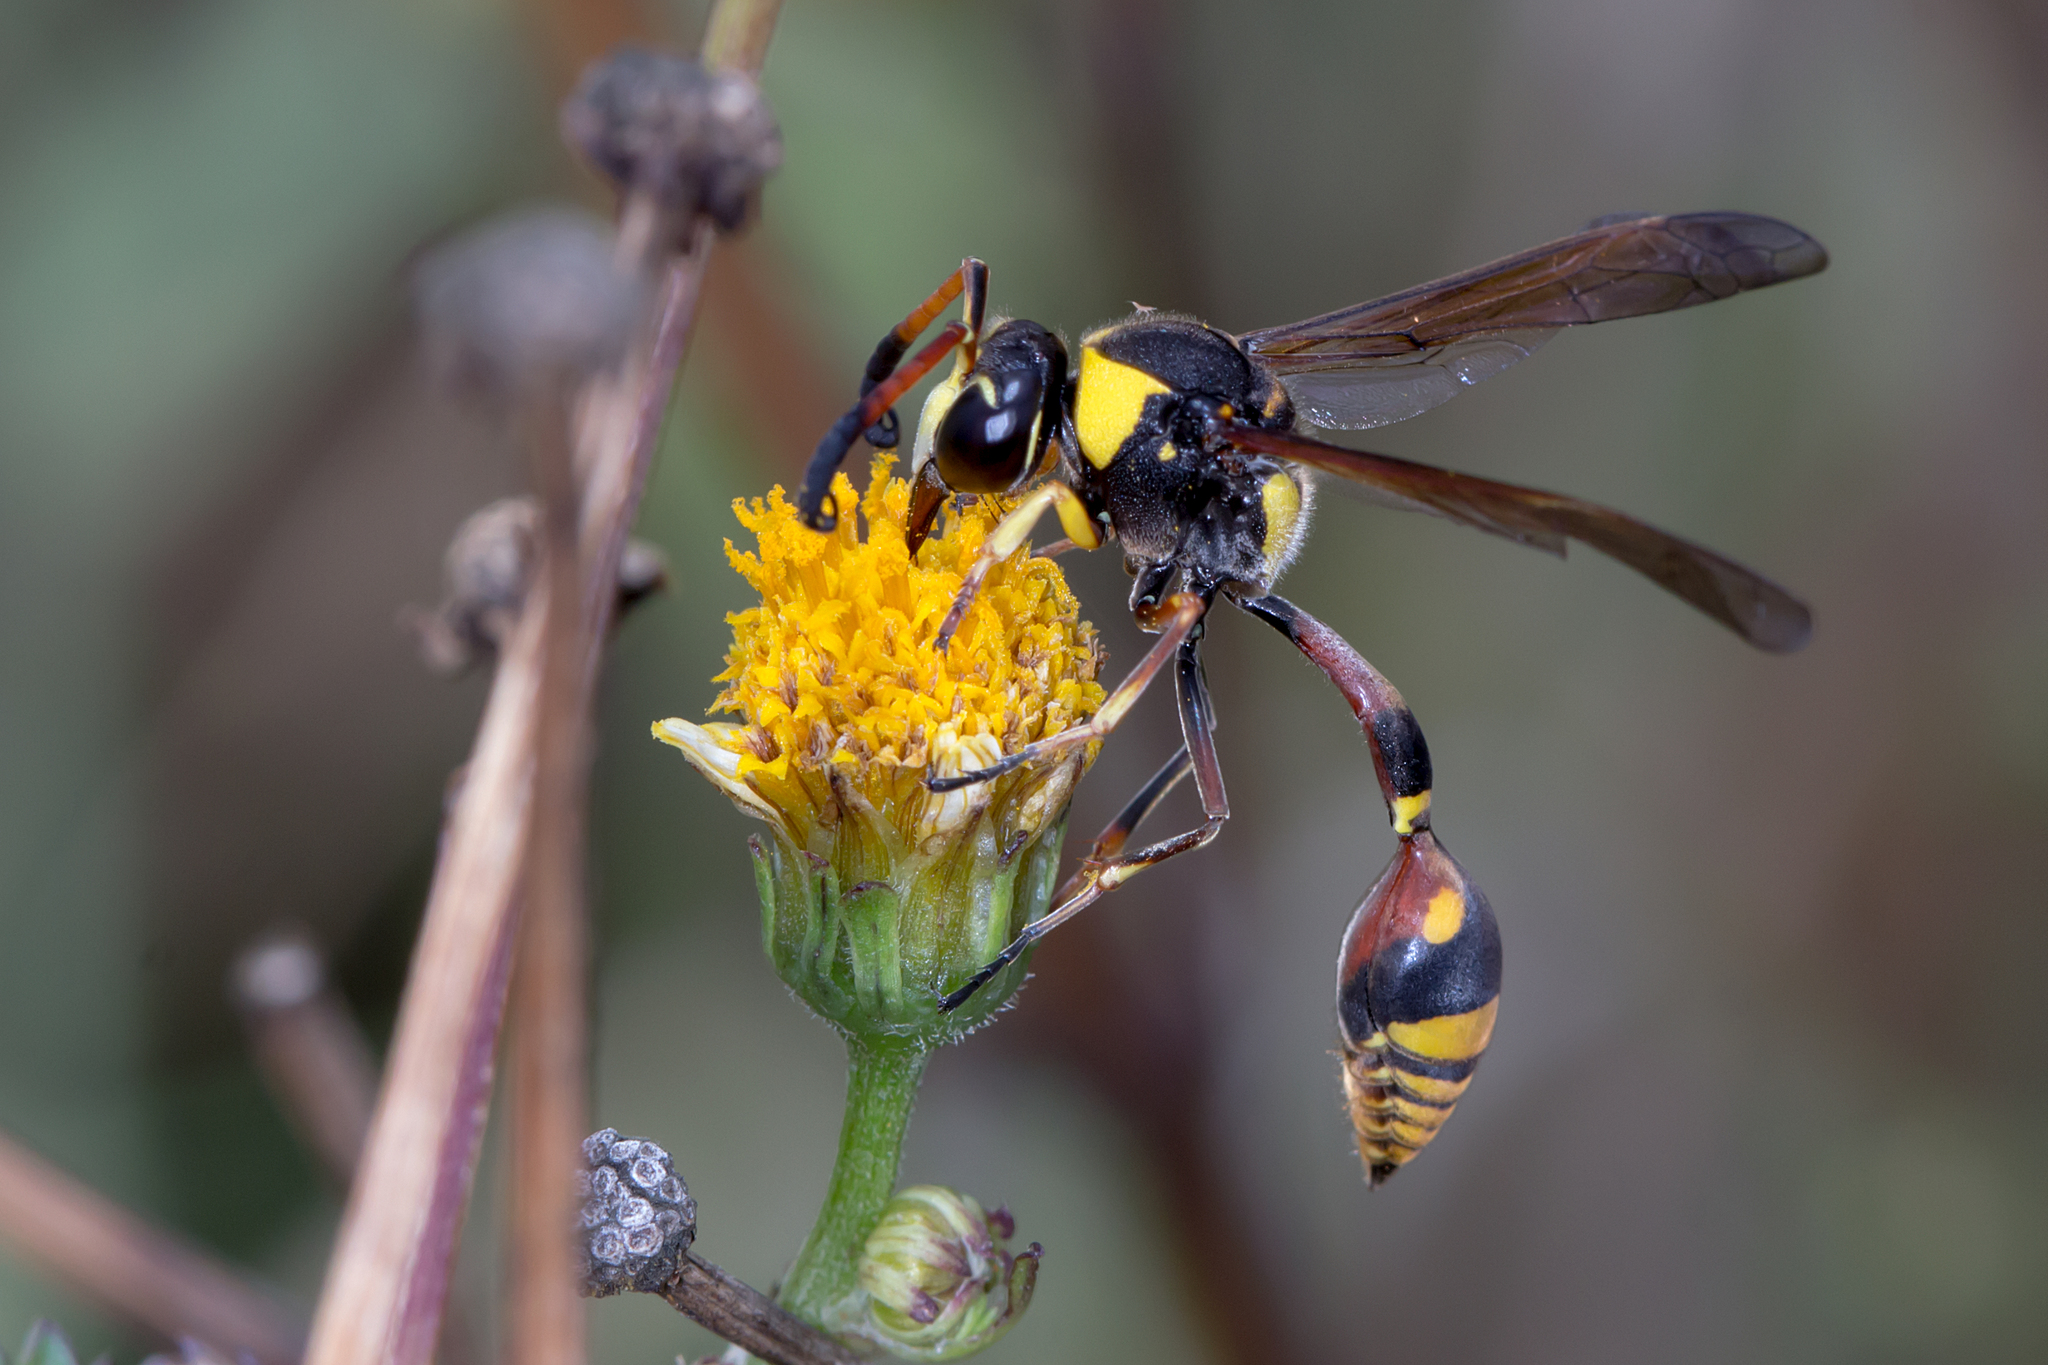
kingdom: Animalia
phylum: Arthropoda
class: Insecta
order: Hymenoptera
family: Eumenidae
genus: Delta
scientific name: Delta campaniforme
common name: Yellow and black potter wasp
